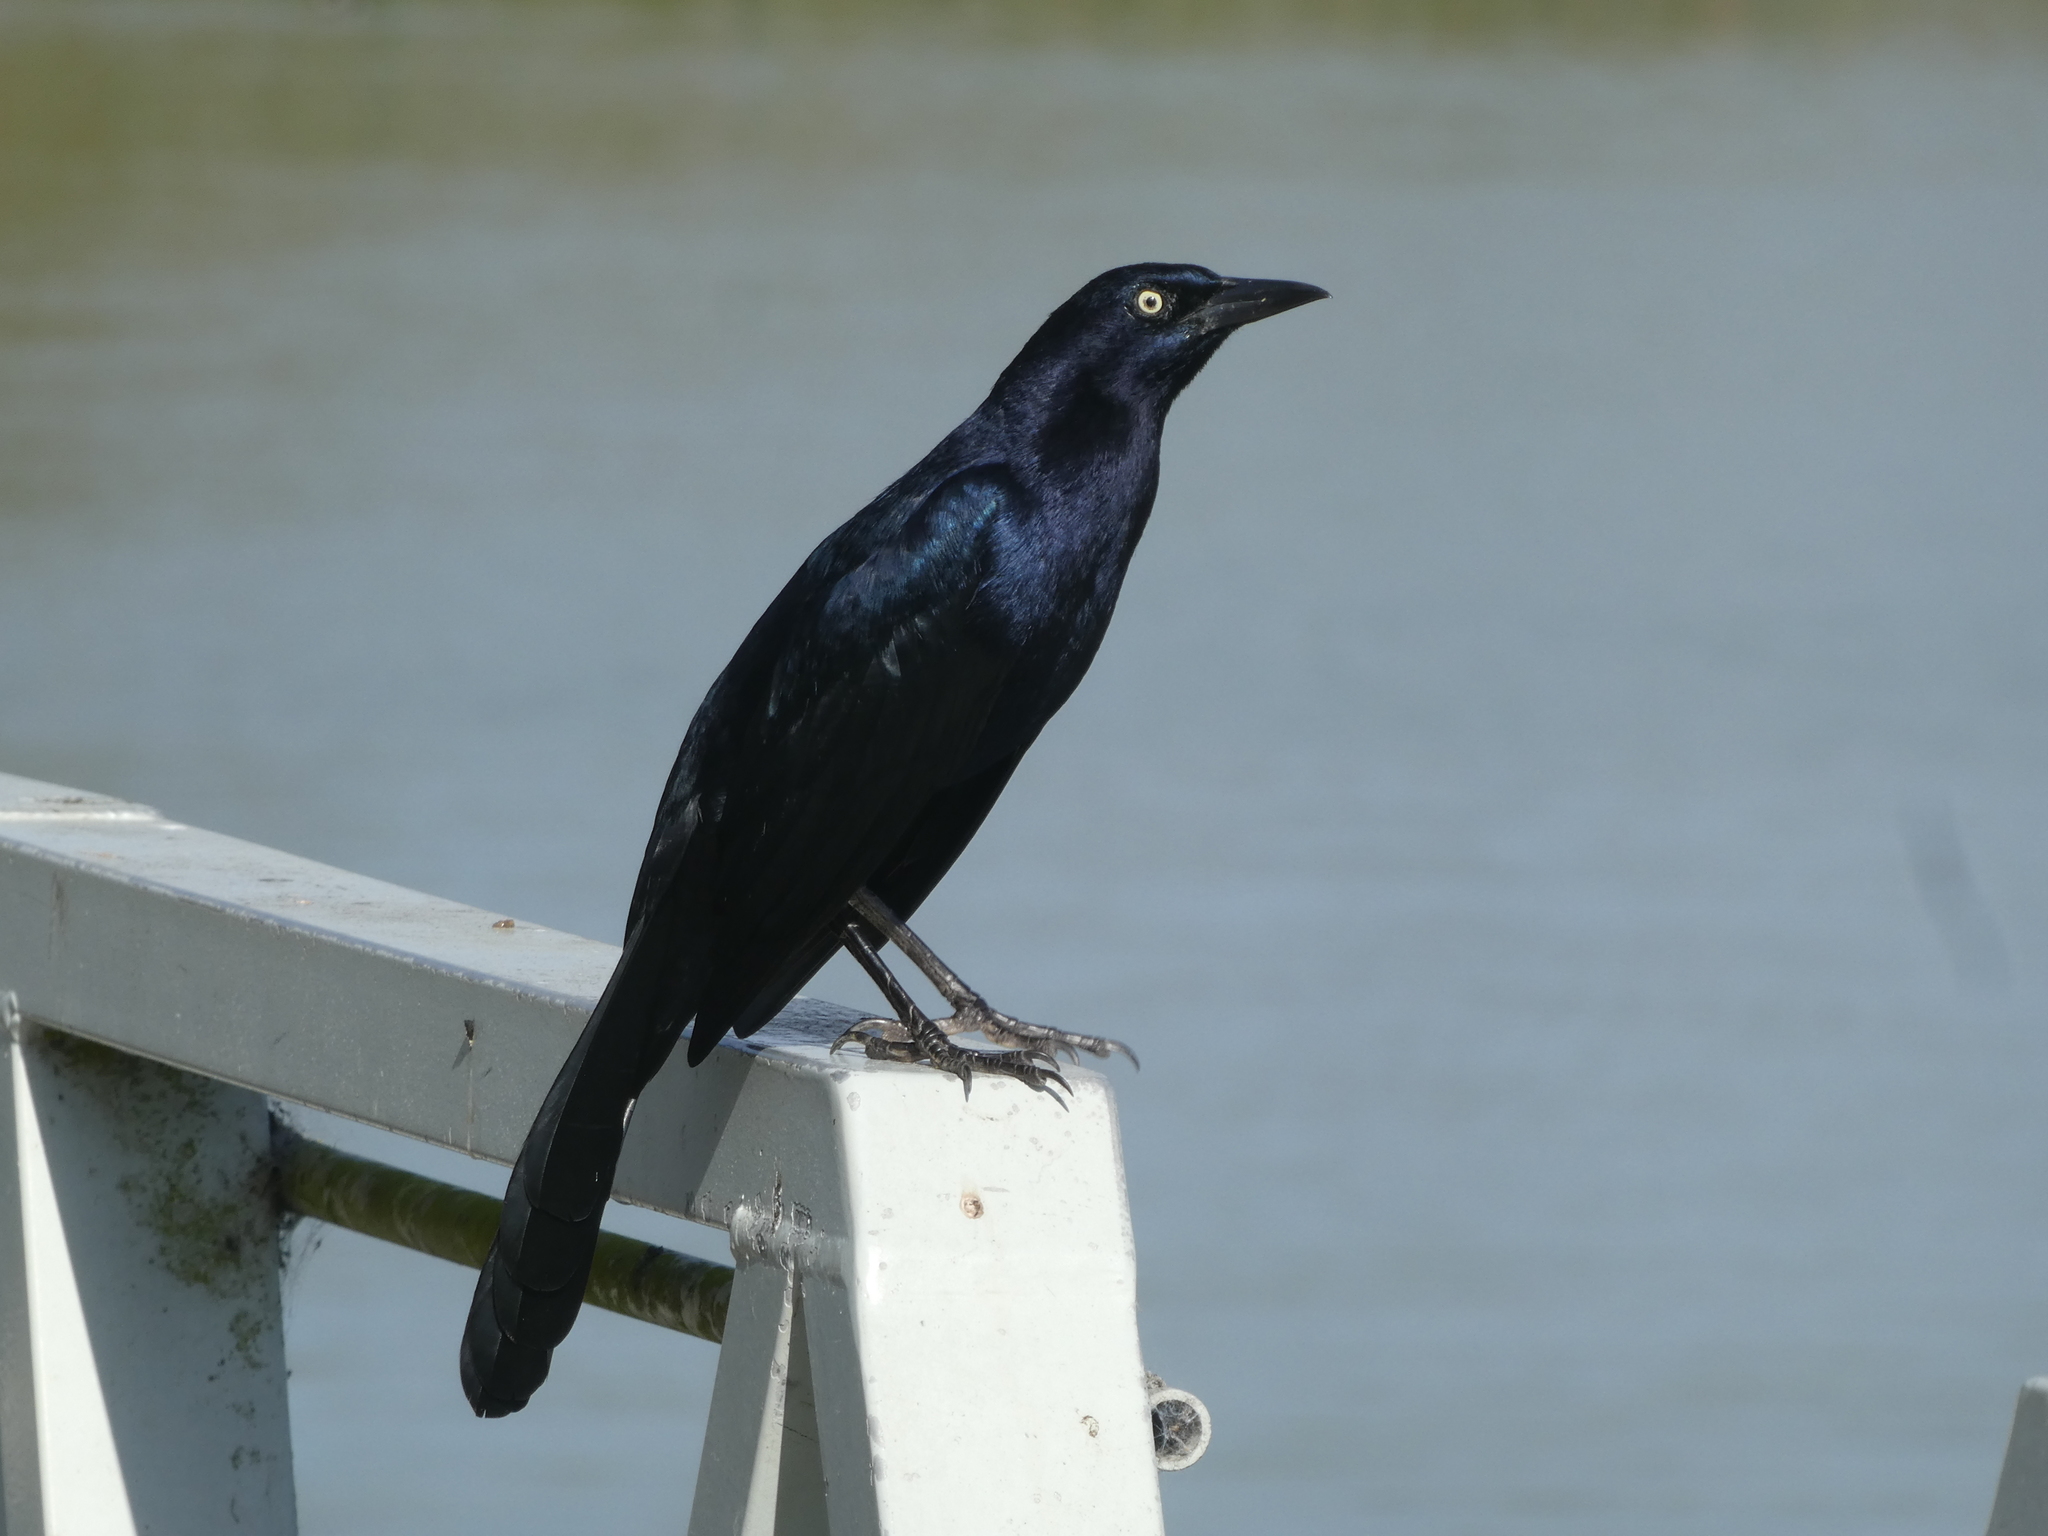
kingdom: Animalia
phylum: Chordata
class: Aves
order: Passeriformes
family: Icteridae
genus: Quiscalus
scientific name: Quiscalus mexicanus
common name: Great-tailed grackle
